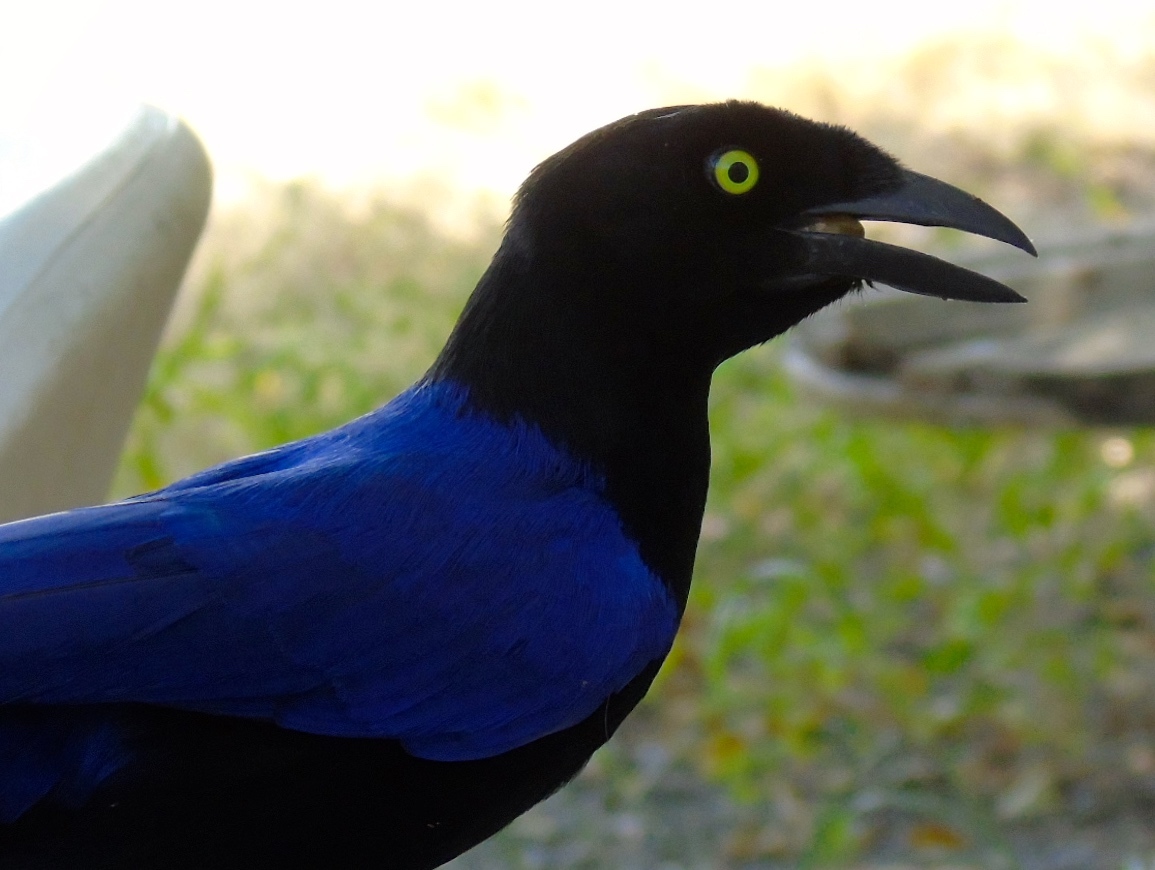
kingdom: Animalia
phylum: Chordata
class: Aves
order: Passeriformes
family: Corvidae
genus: Cyanocorax
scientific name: Cyanocorax beecheii
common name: Purplish-backed jay
